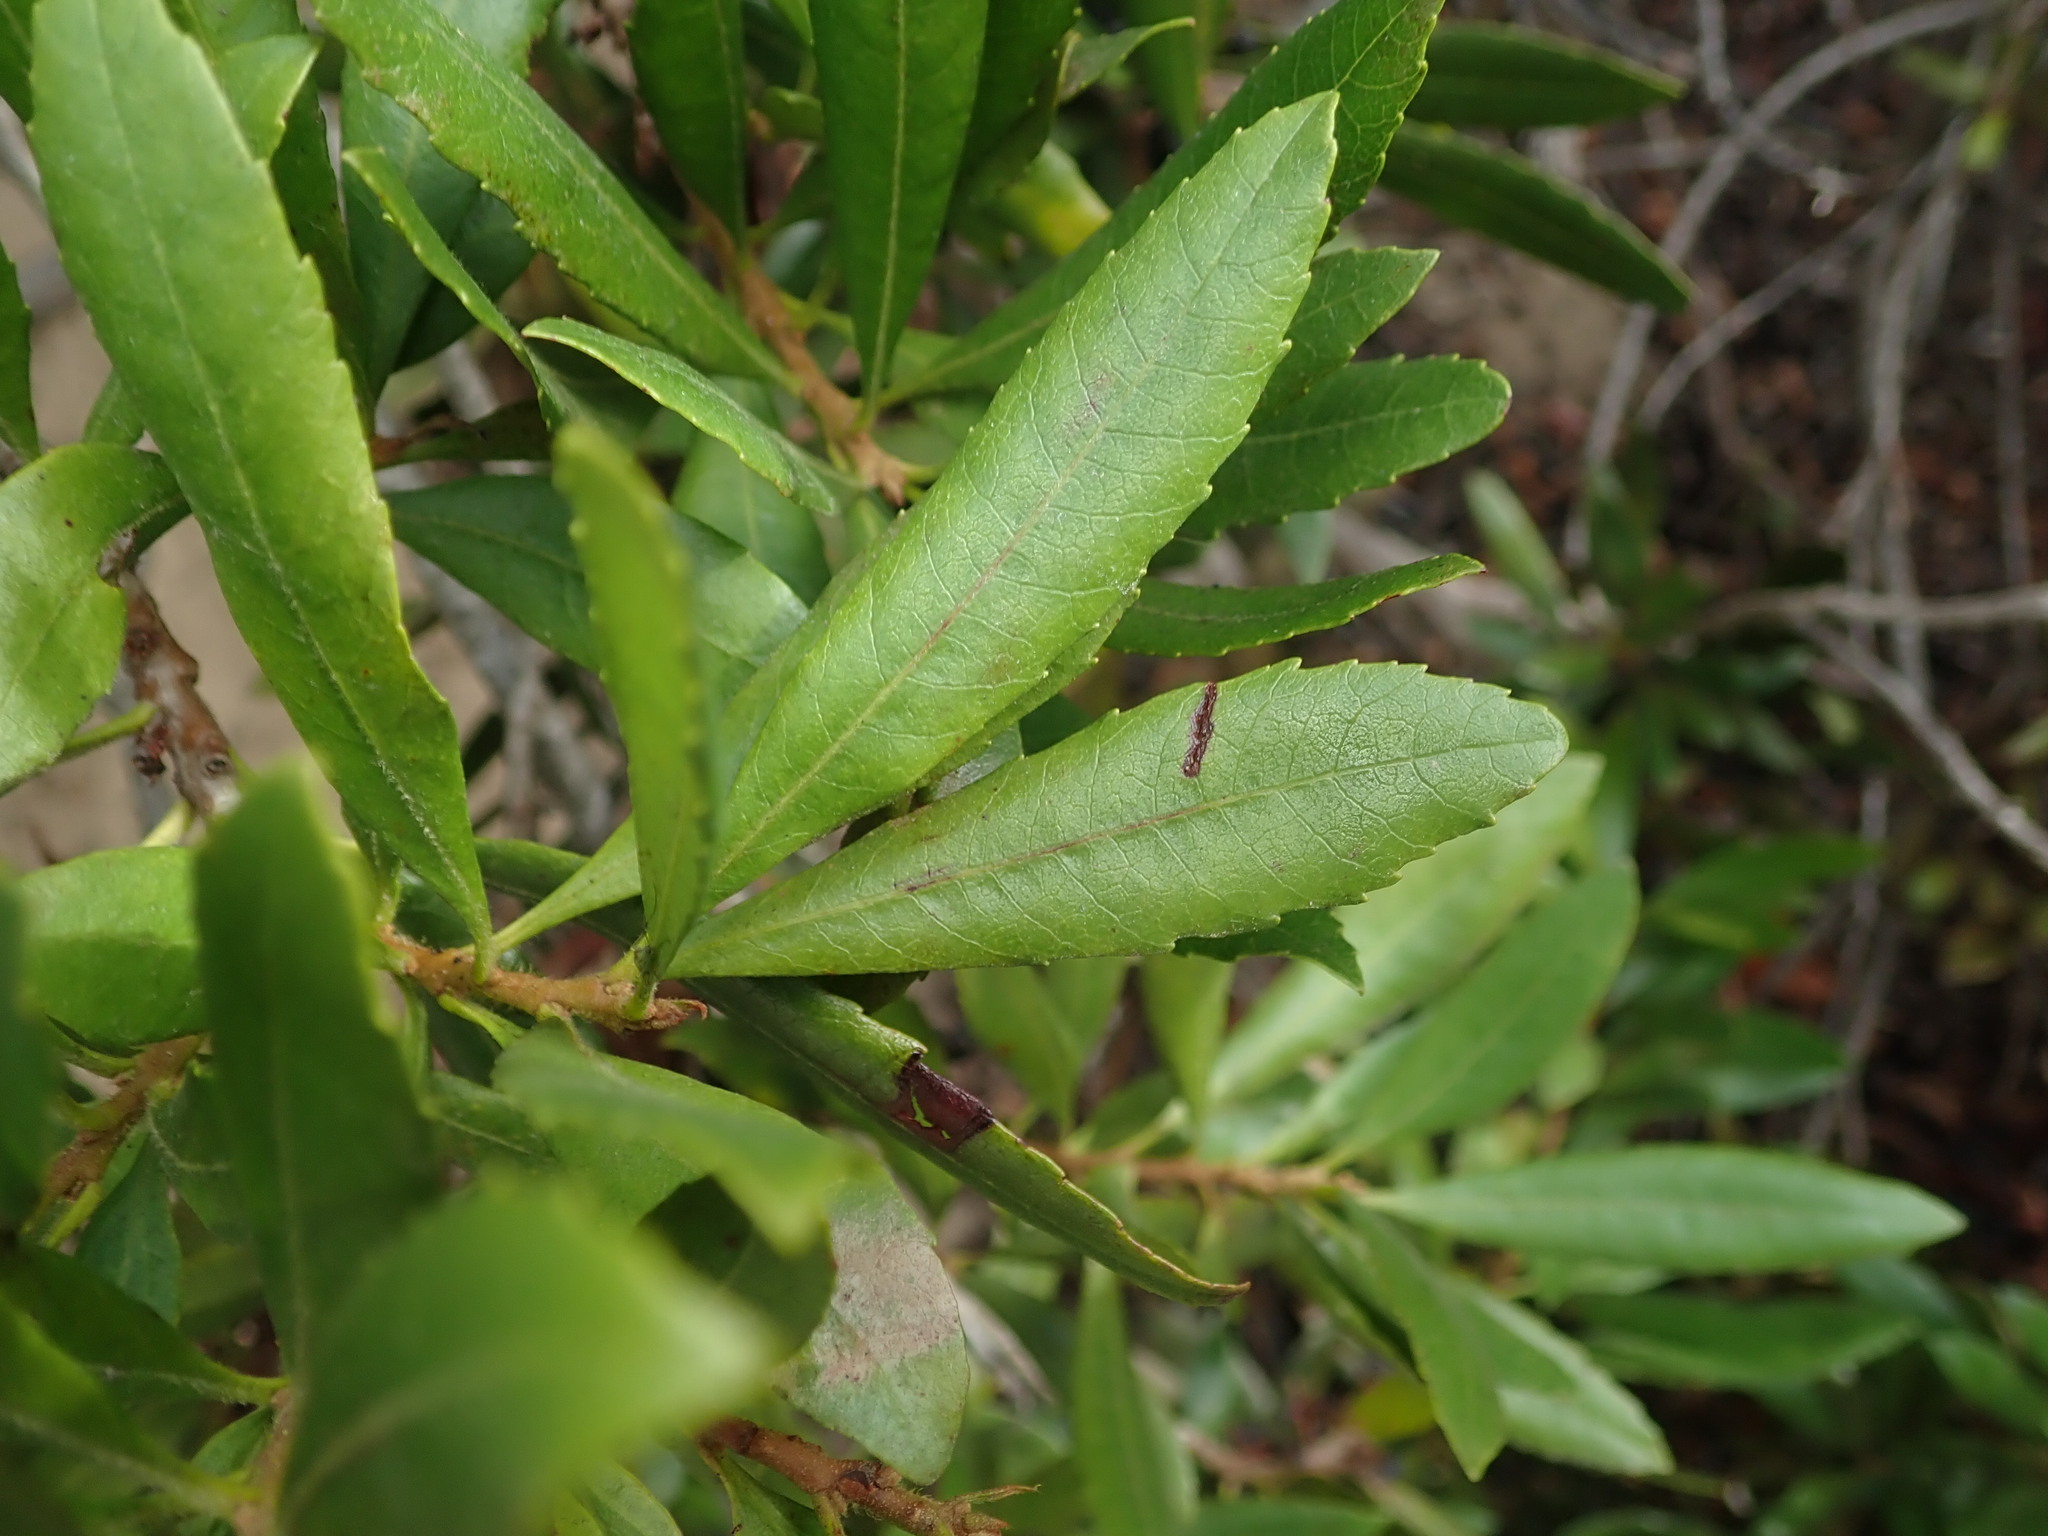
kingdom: Plantae
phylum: Tracheophyta
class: Magnoliopsida
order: Fagales
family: Myricaceae
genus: Morella
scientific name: Morella californica
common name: California wax-myrtle
